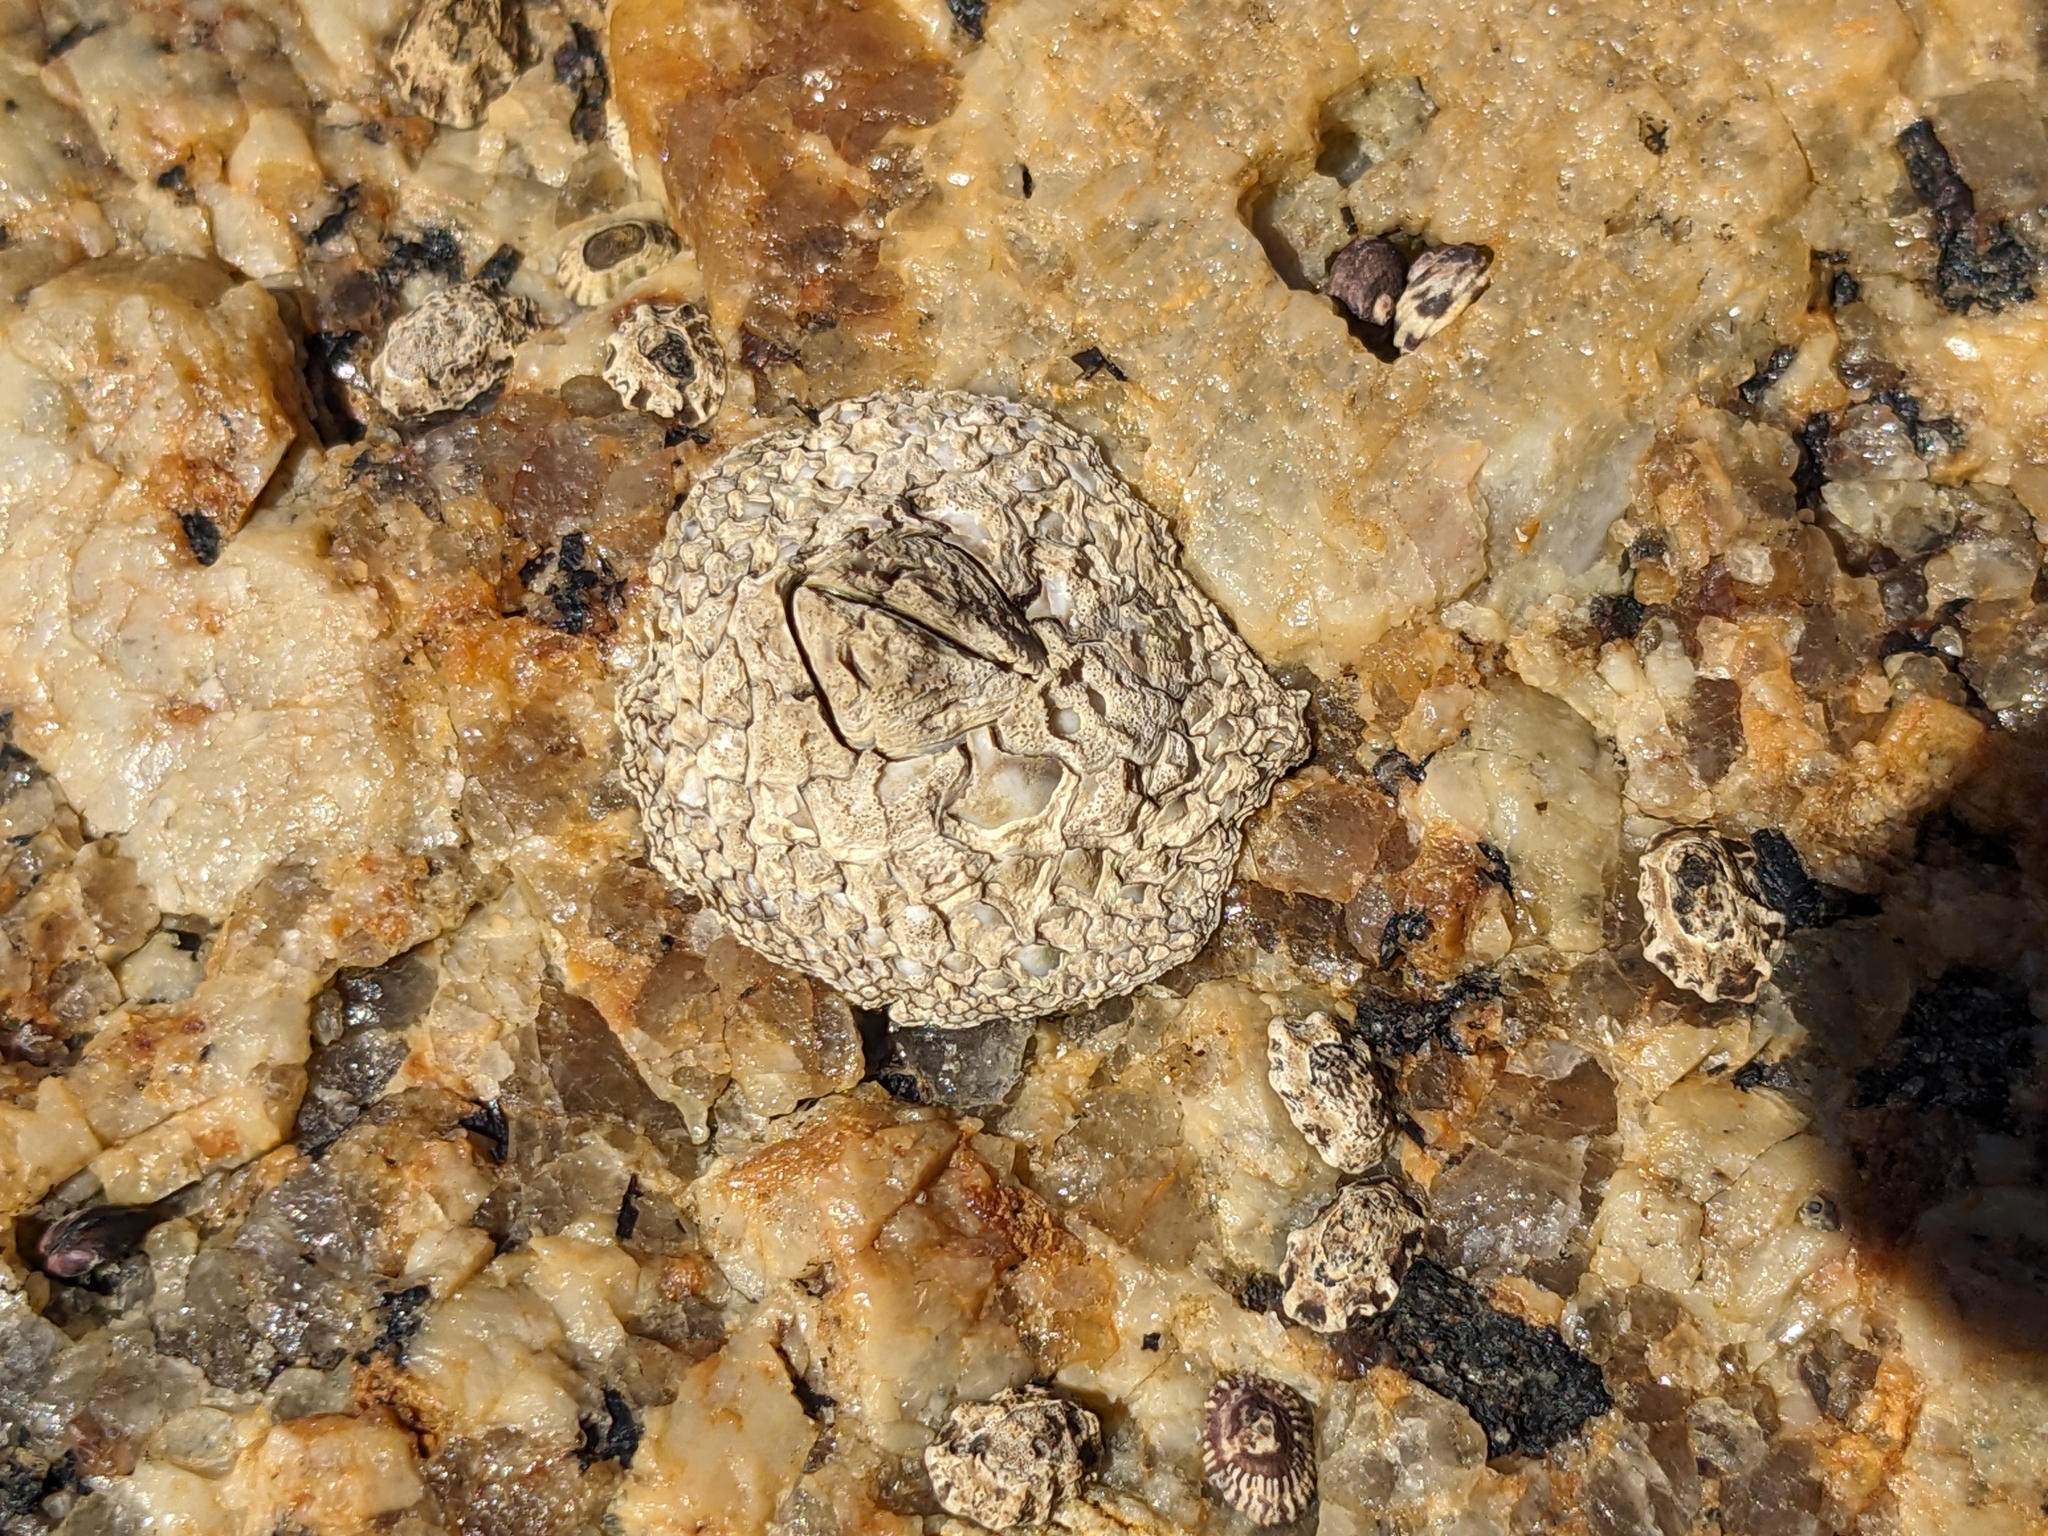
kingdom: Animalia
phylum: Arthropoda
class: Maxillopoda
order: Sessilia
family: Catophragmidae
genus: Catomerus
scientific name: Catomerus polymerus
